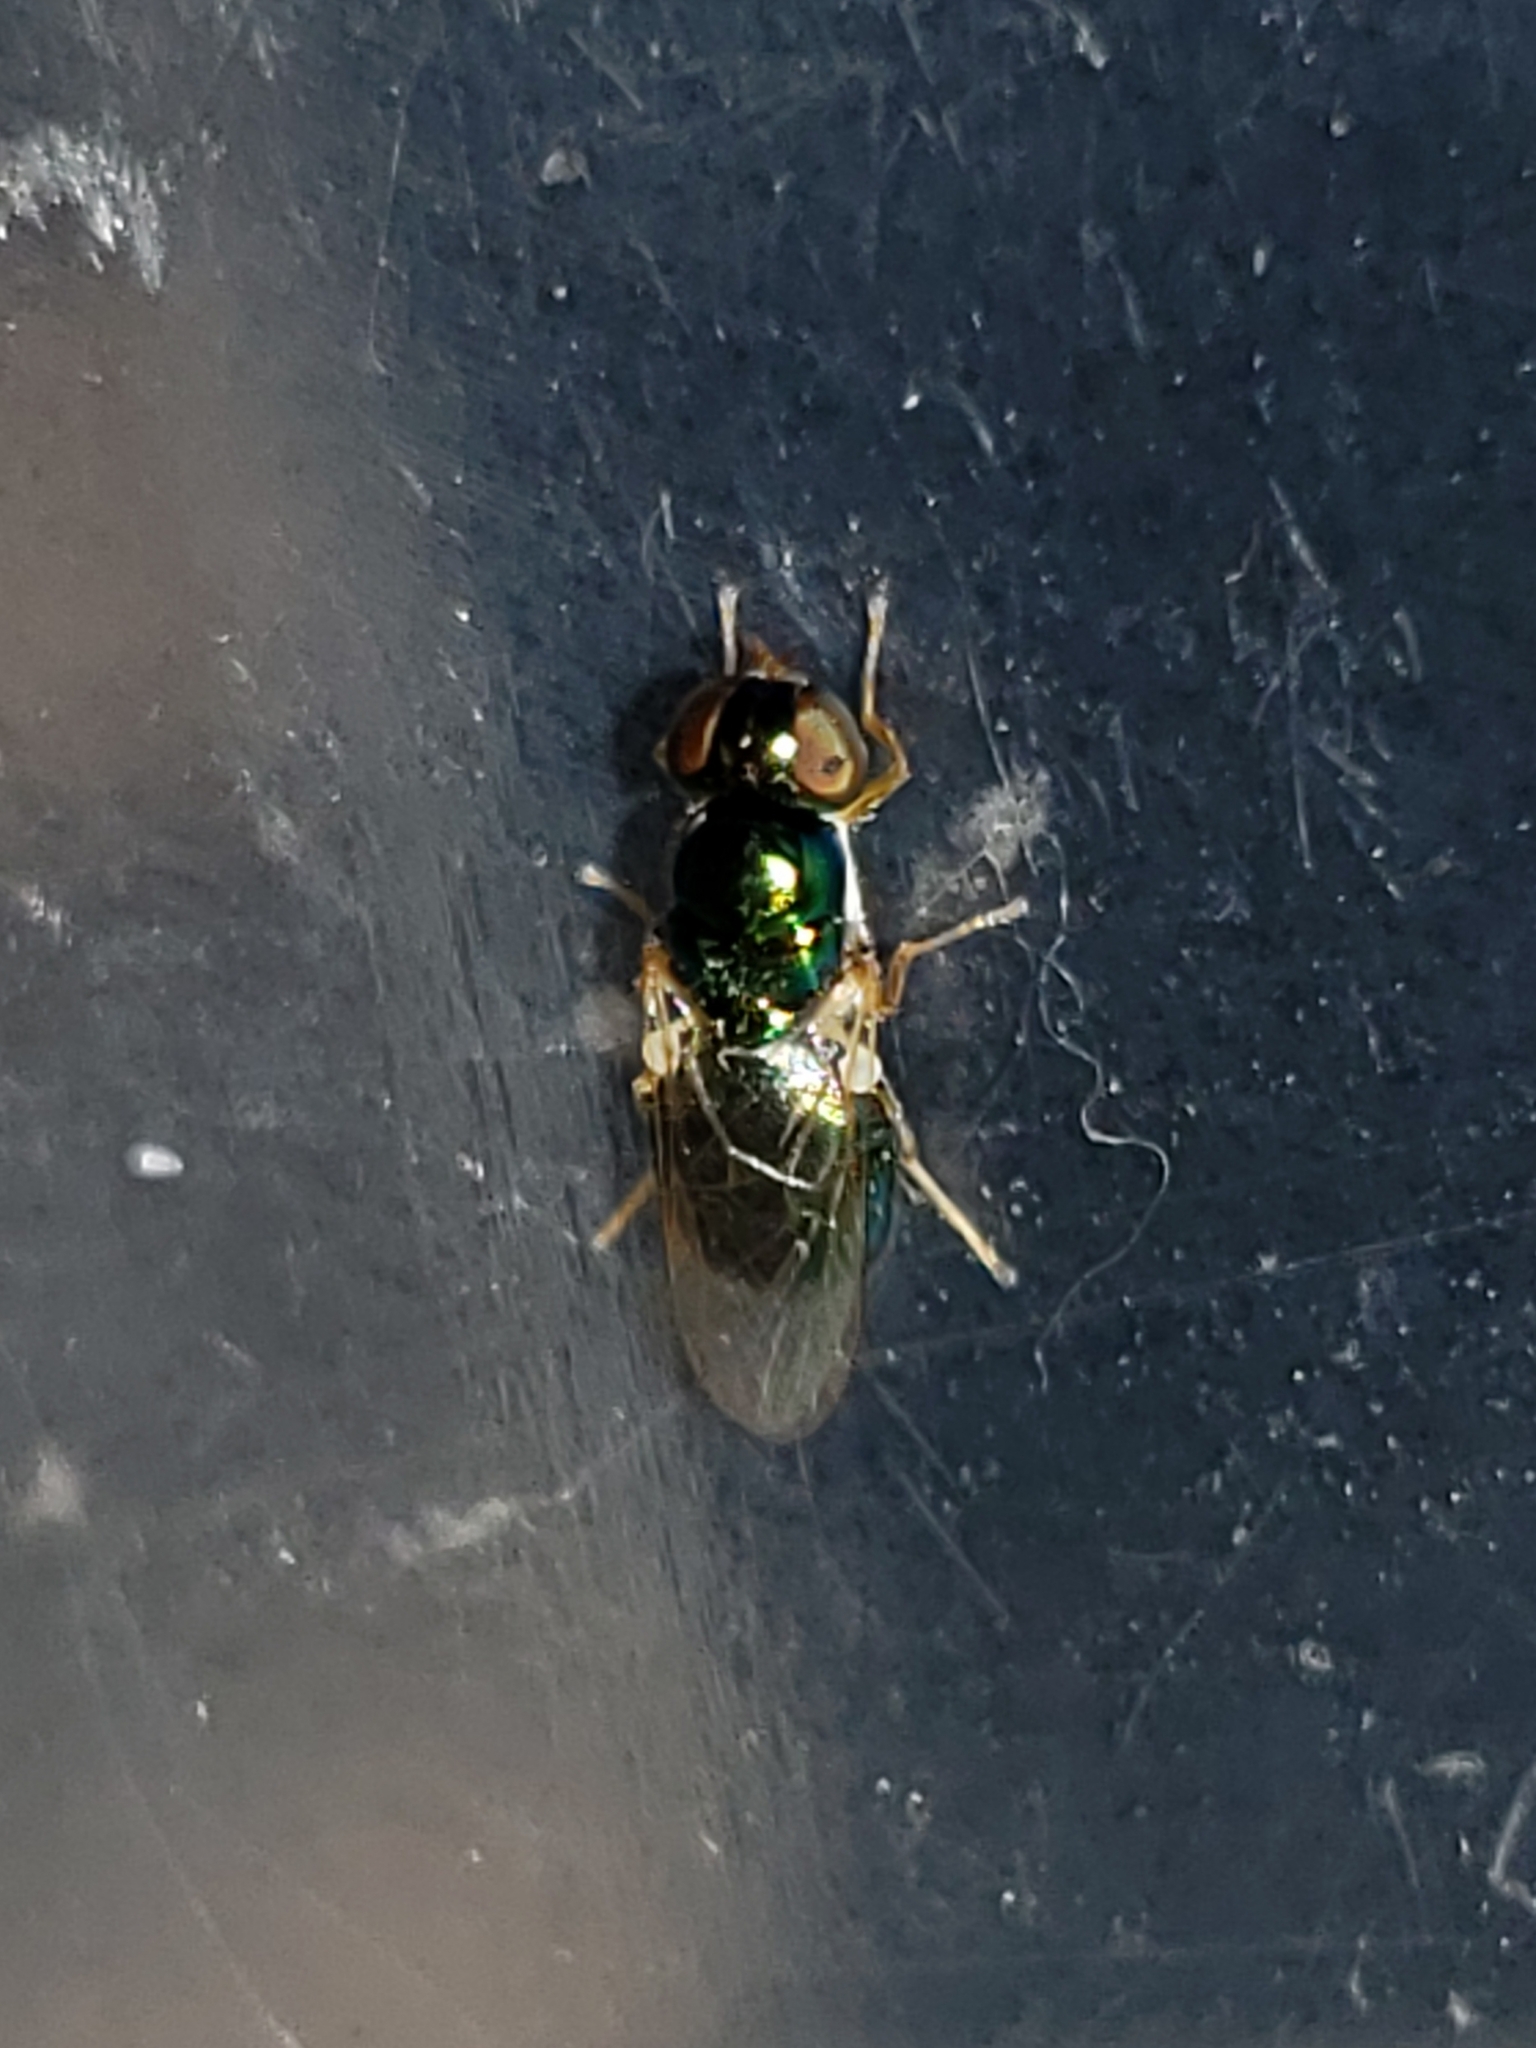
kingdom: Animalia
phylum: Arthropoda
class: Insecta
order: Diptera
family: Stratiomyidae
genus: Microchrysa
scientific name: Microchrysa flaviventris
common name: Soldier fly
